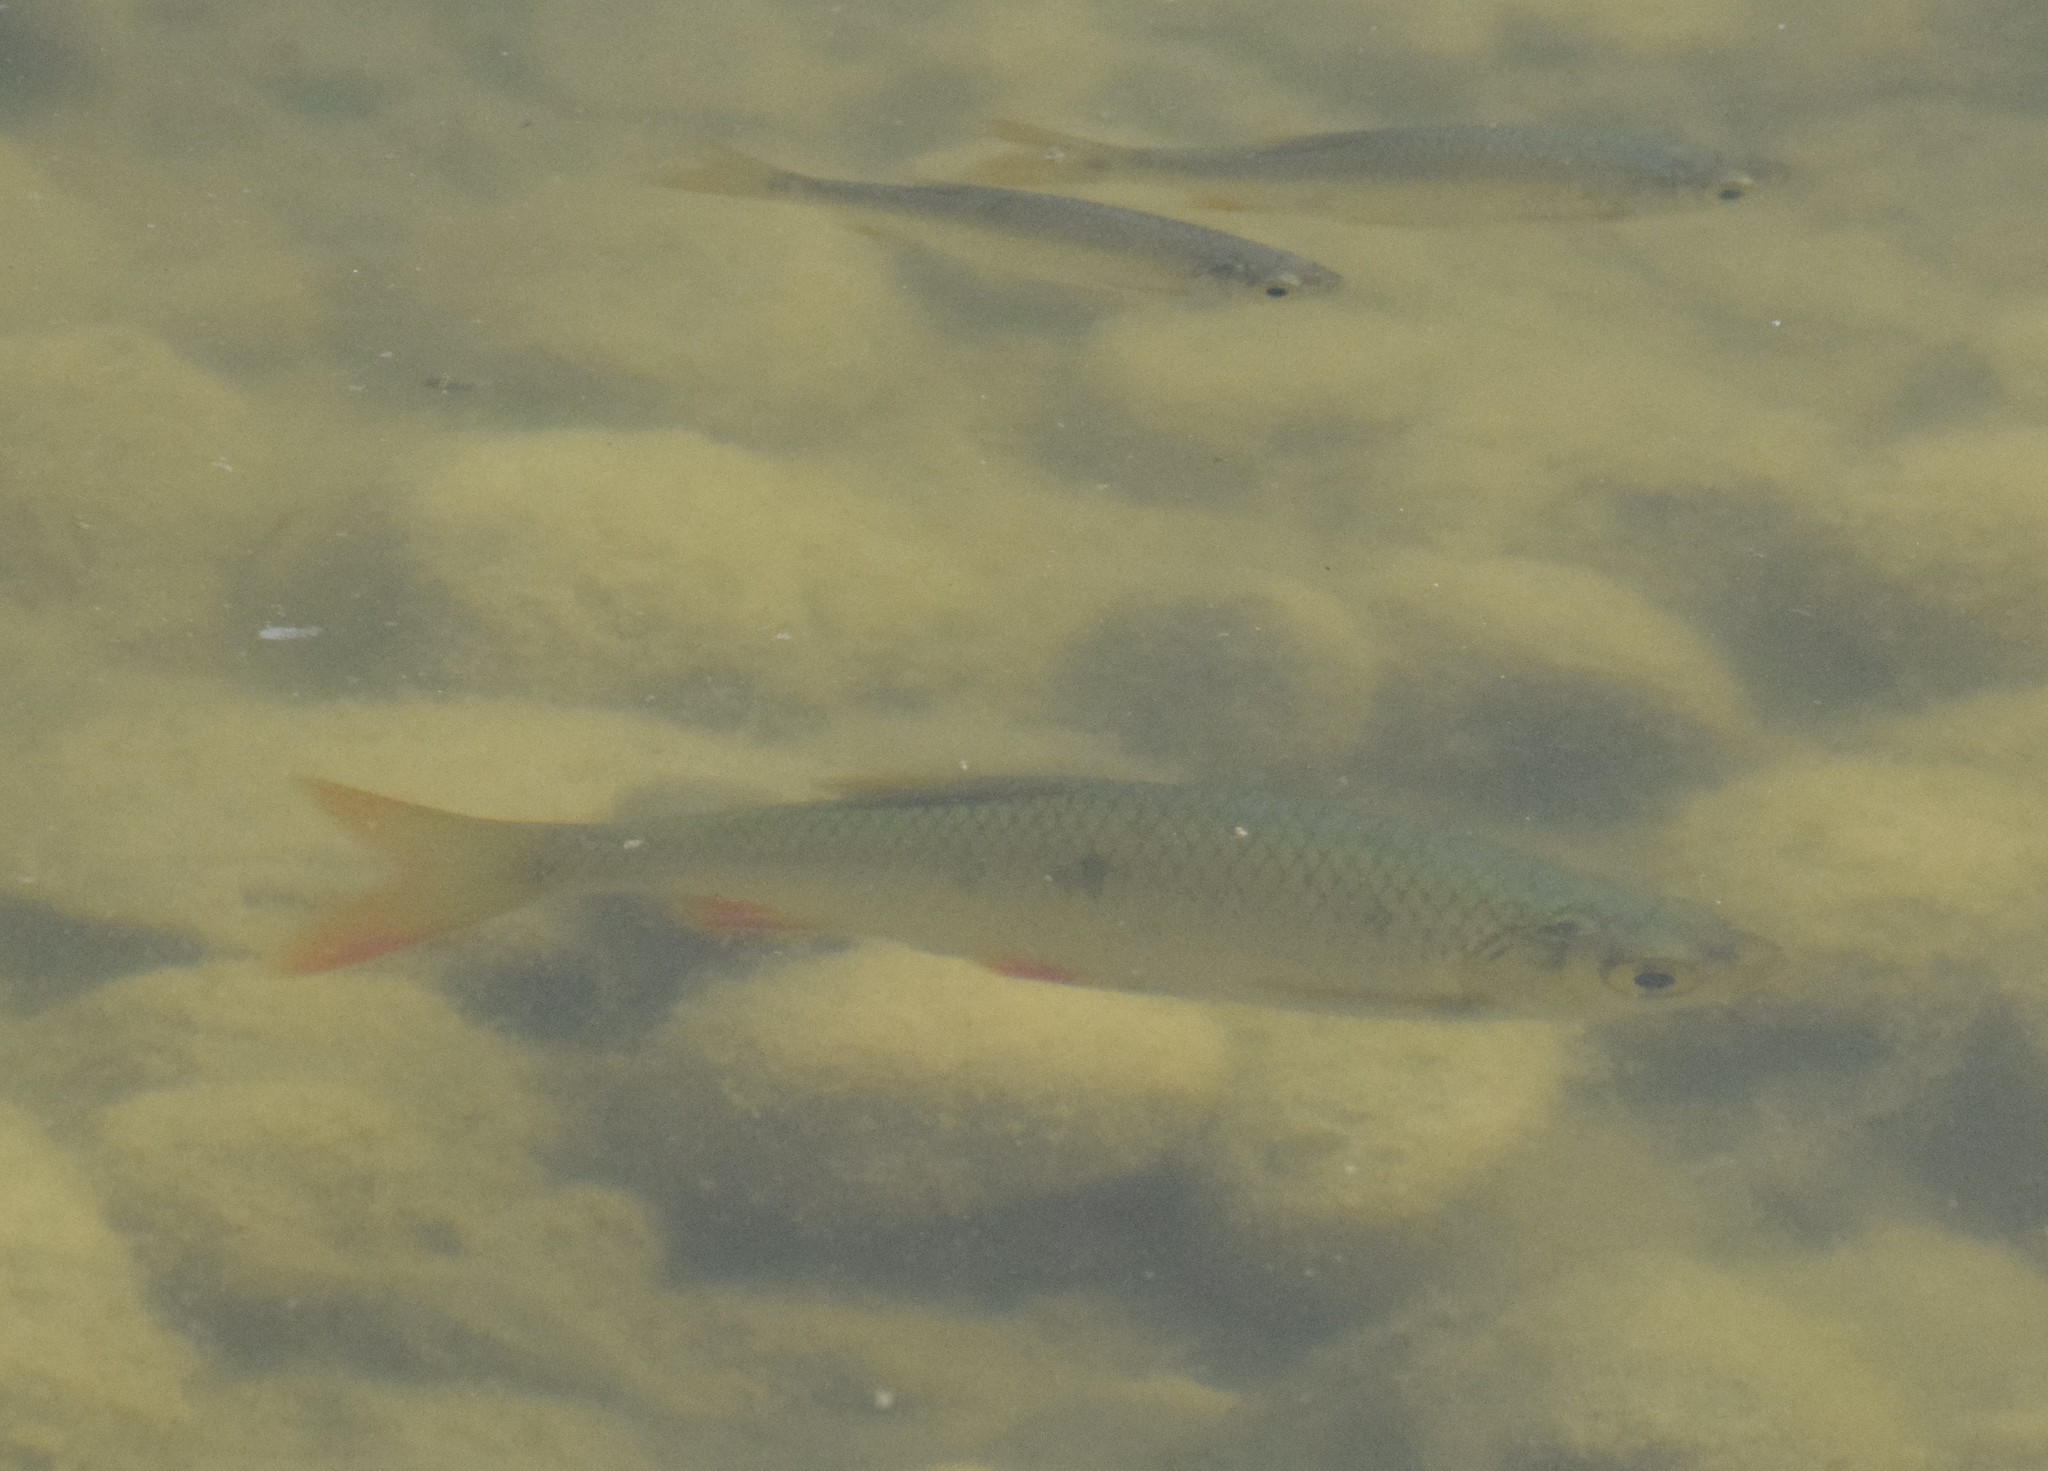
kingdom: Animalia
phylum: Chordata
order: Cypriniformes
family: Cyprinidae
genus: Scardinius
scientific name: Scardinius erythrophthalmus
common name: Rudd
